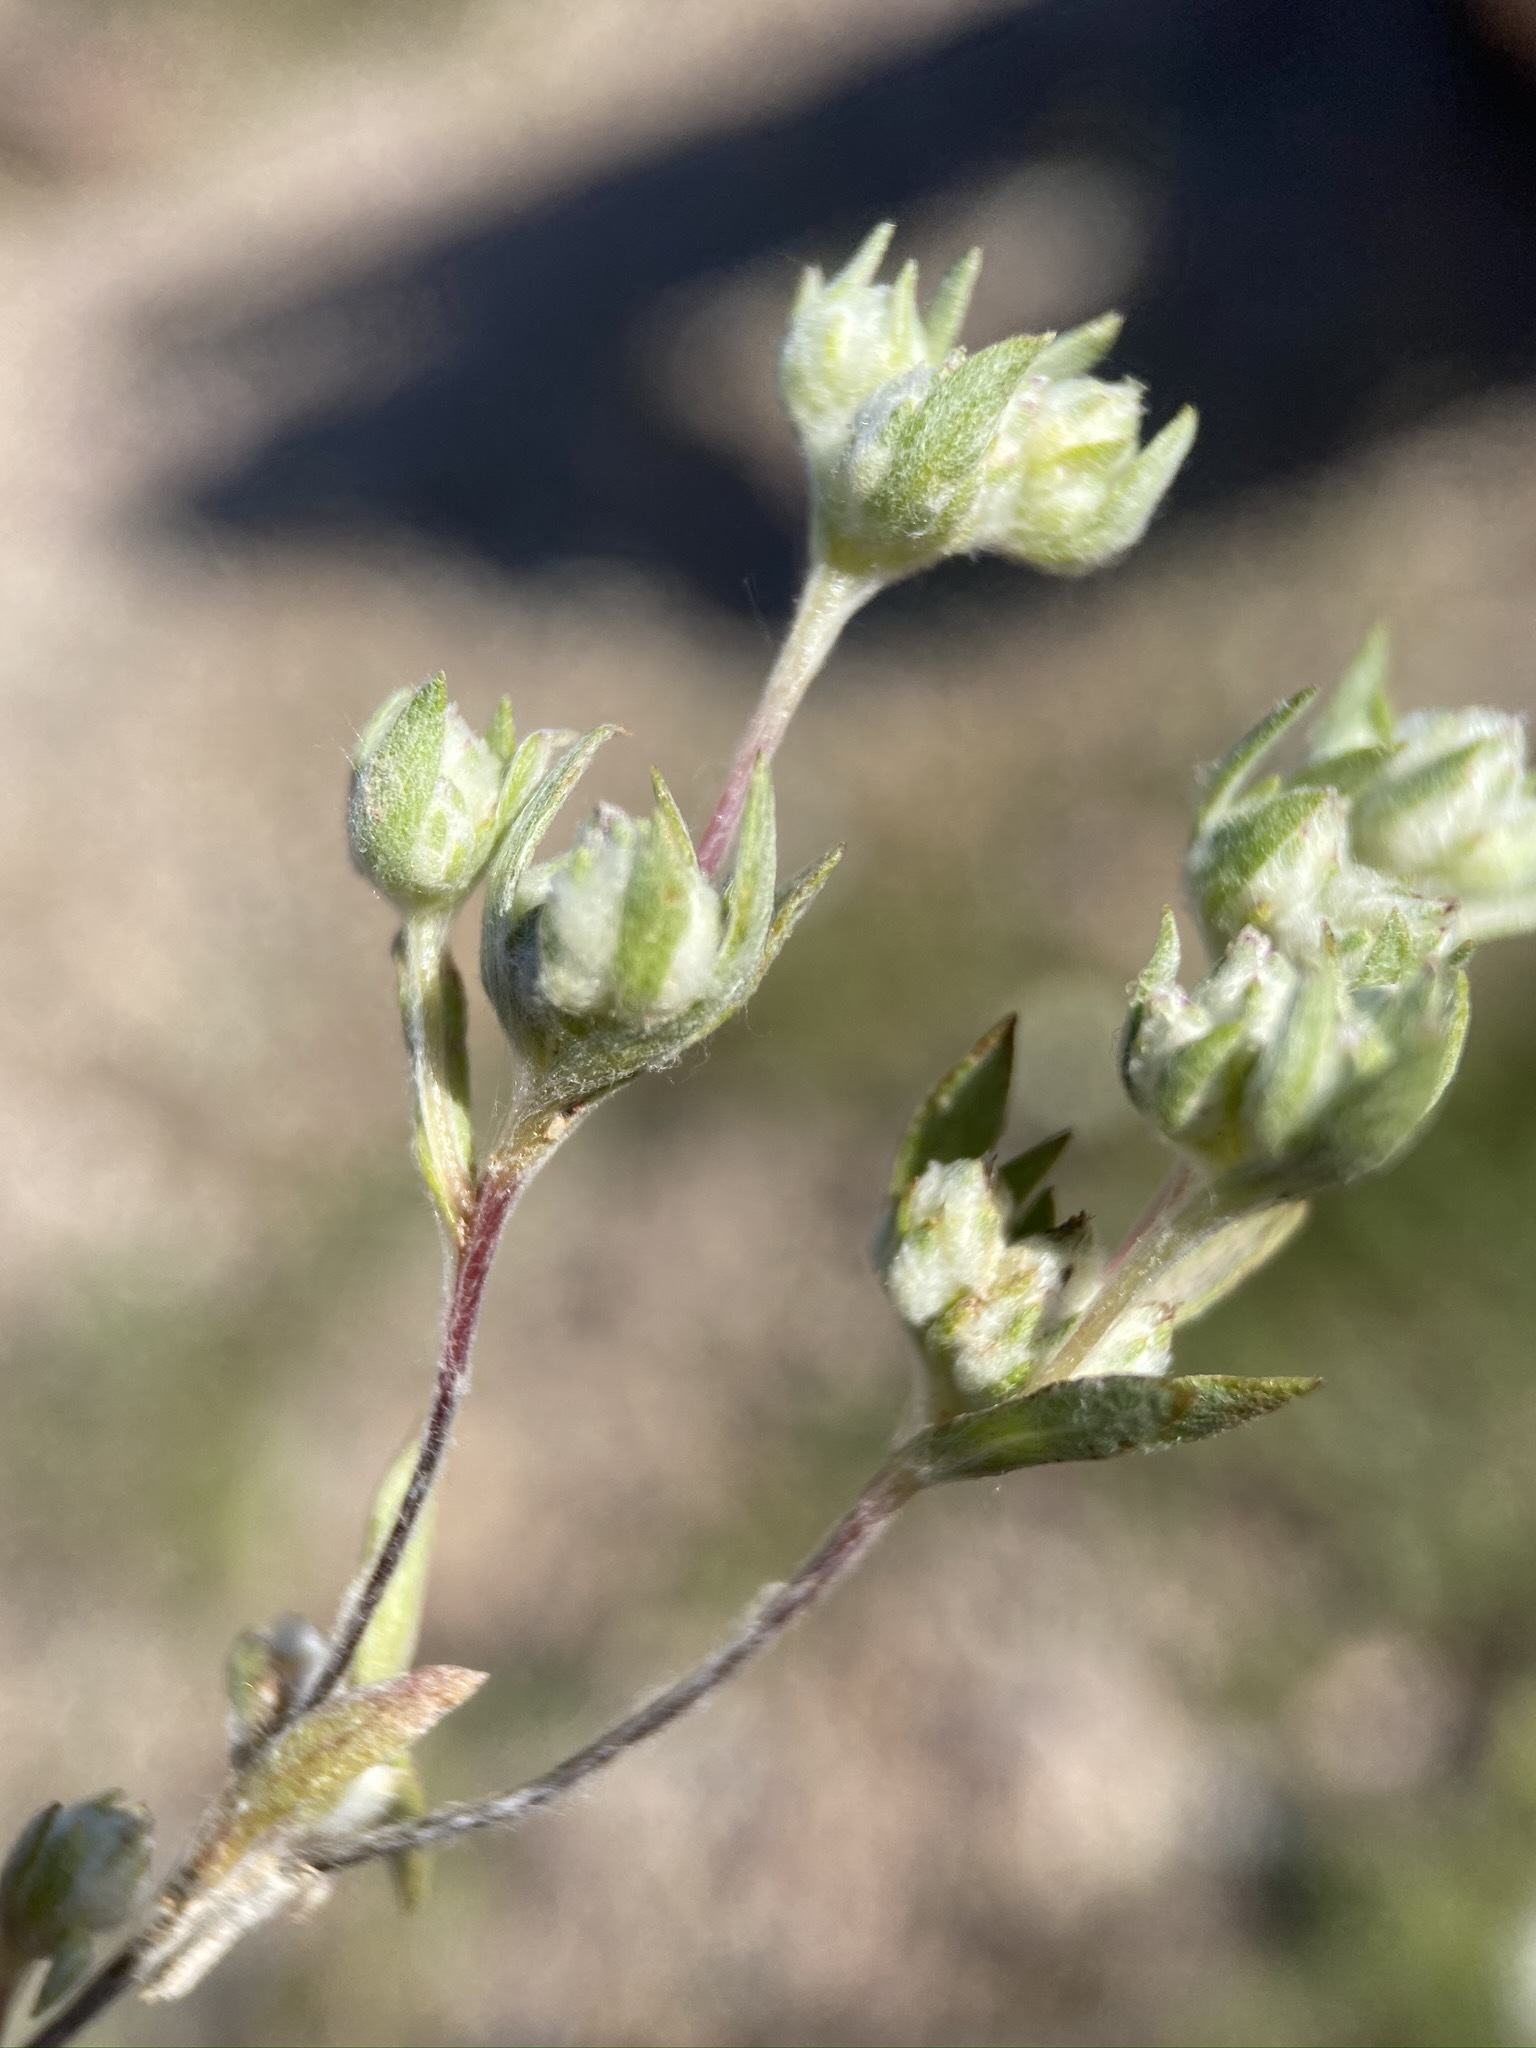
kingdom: Plantae
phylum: Tracheophyta
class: Magnoliopsida
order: Asterales
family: Asteraceae
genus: Stylocline
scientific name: Stylocline psilocarphoides
